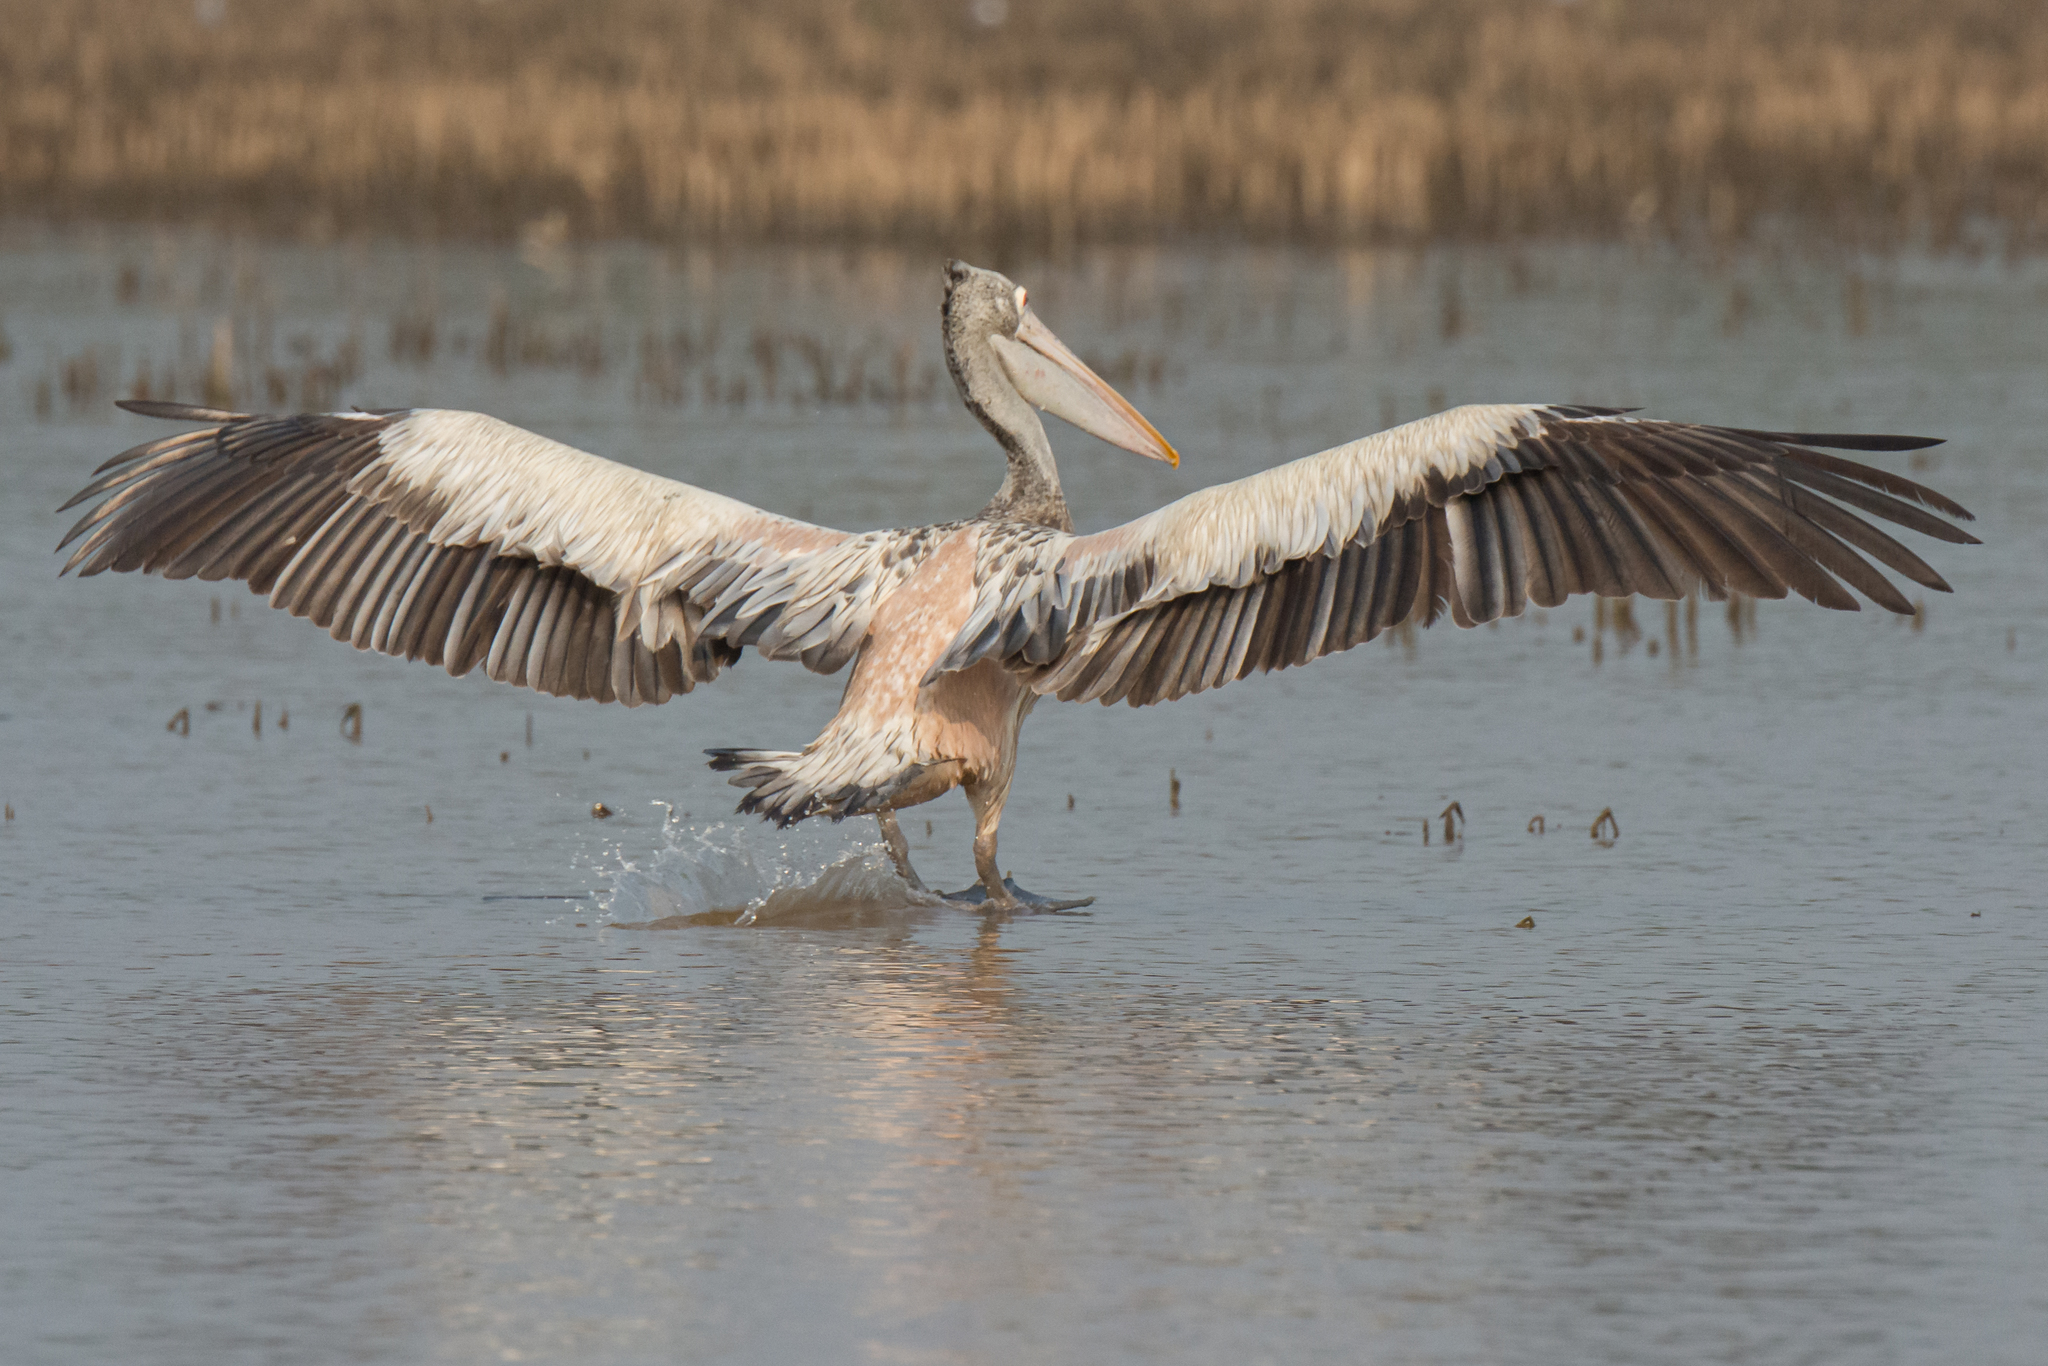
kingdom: Animalia
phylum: Chordata
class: Aves
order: Pelecaniformes
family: Pelecanidae
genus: Pelecanus
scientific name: Pelecanus philippensis
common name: Spot-billed pelican
